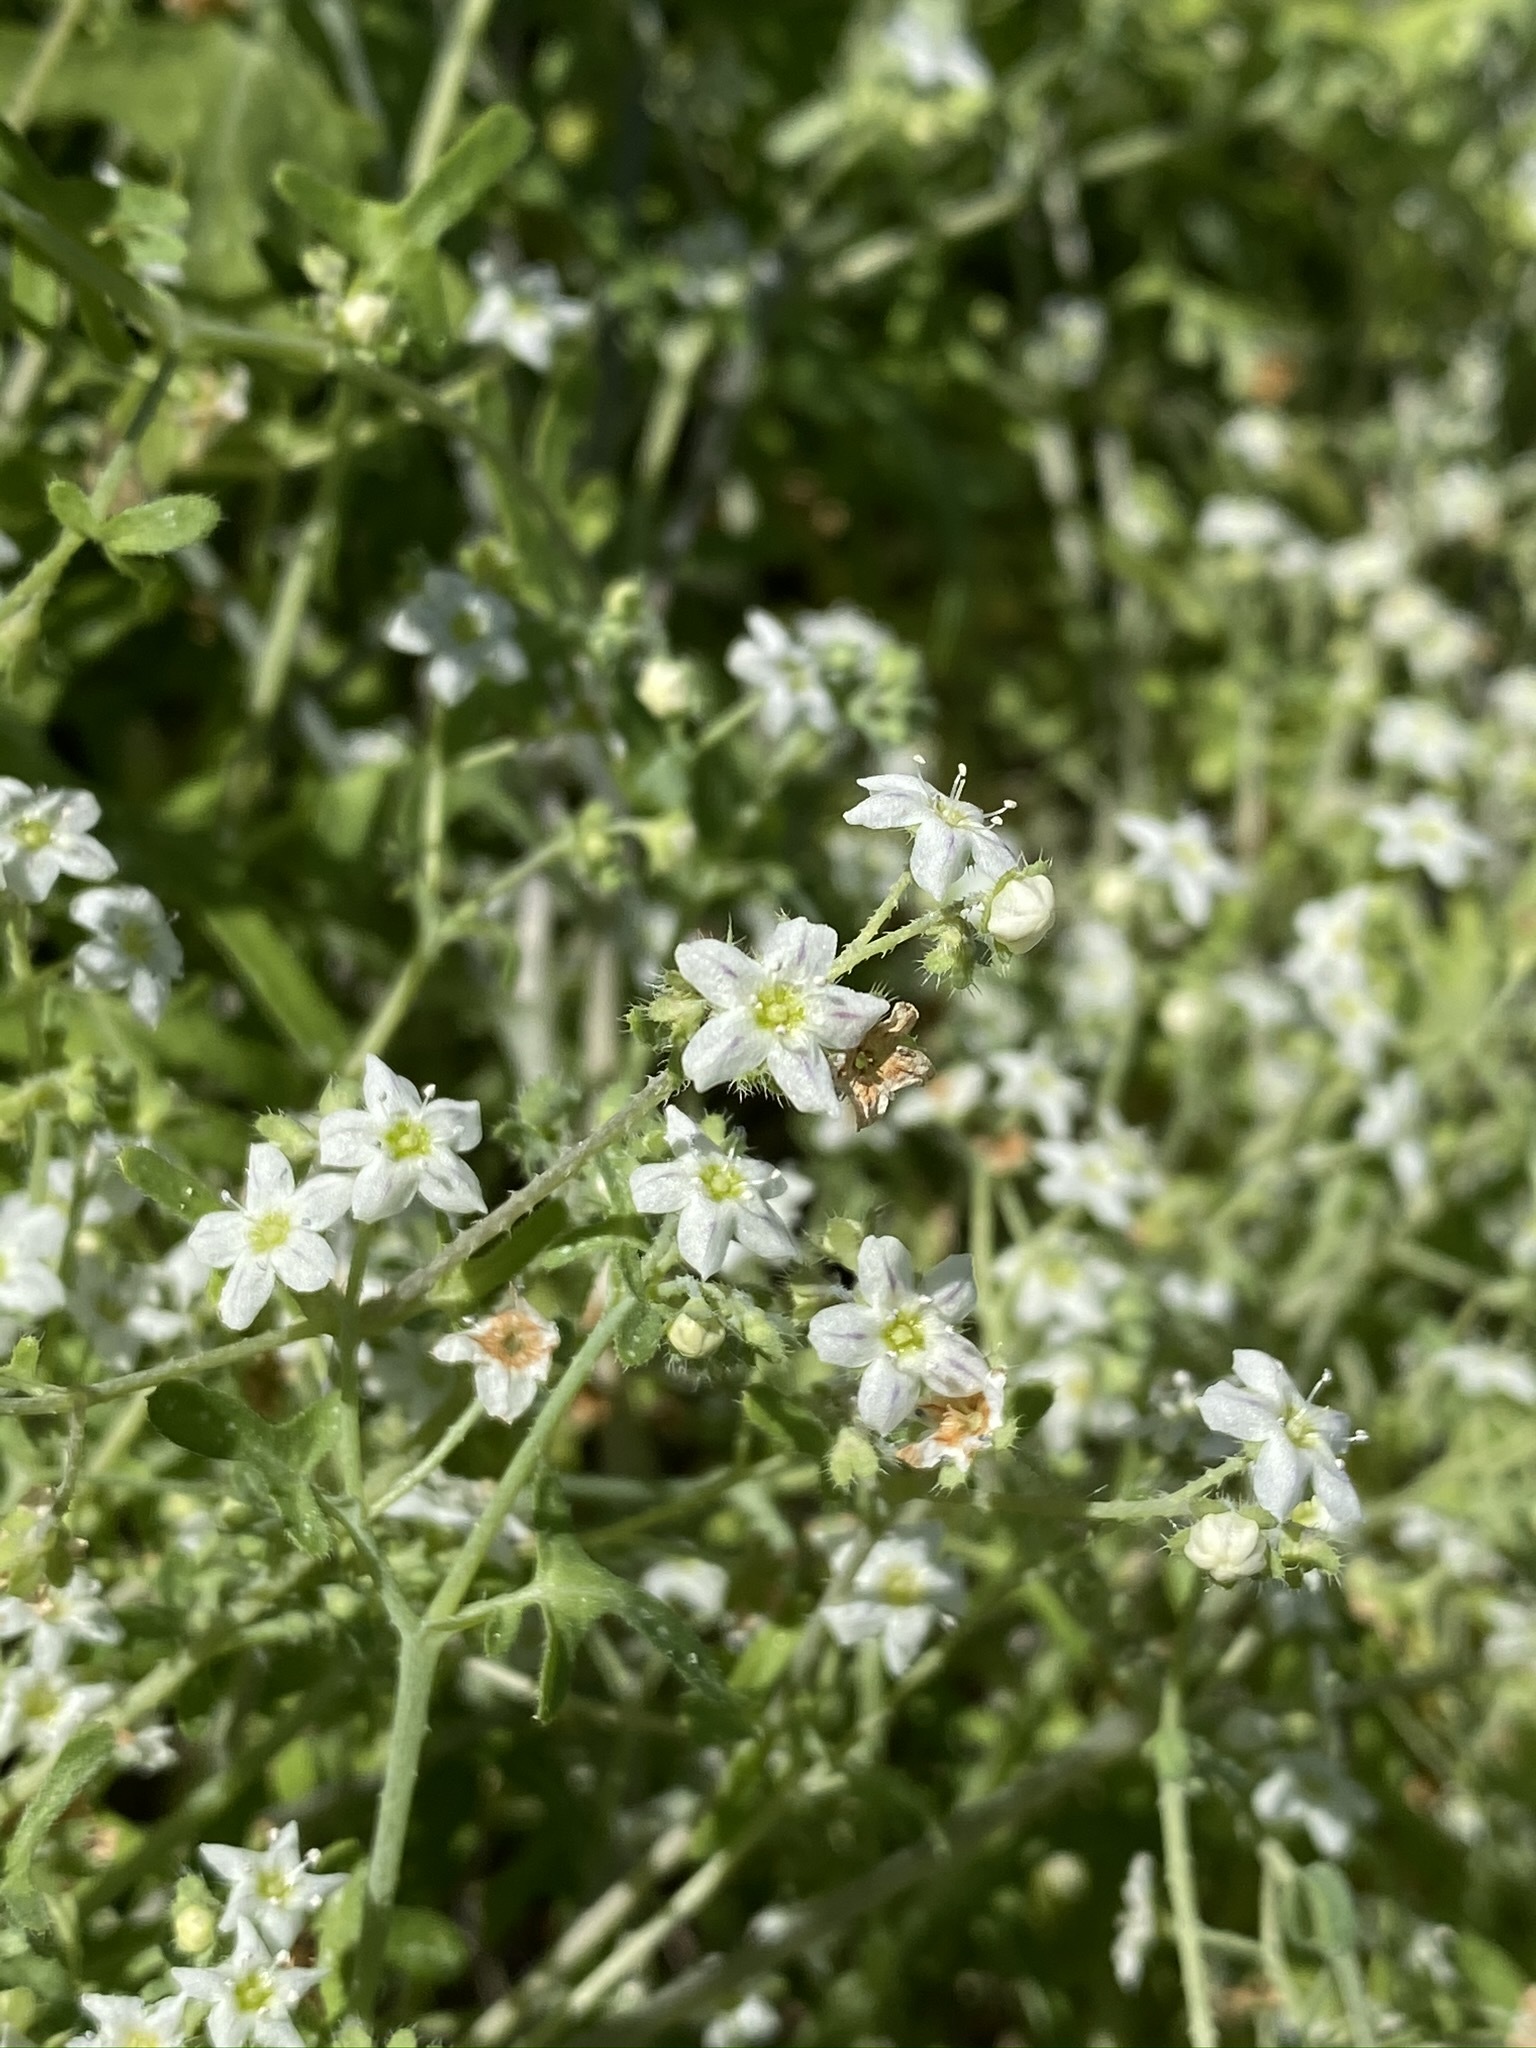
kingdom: Plantae
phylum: Tracheophyta
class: Magnoliopsida
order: Boraginales
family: Hydrophyllaceae
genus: Pholistoma
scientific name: Pholistoma membranaceum
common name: White fiesta-flower
